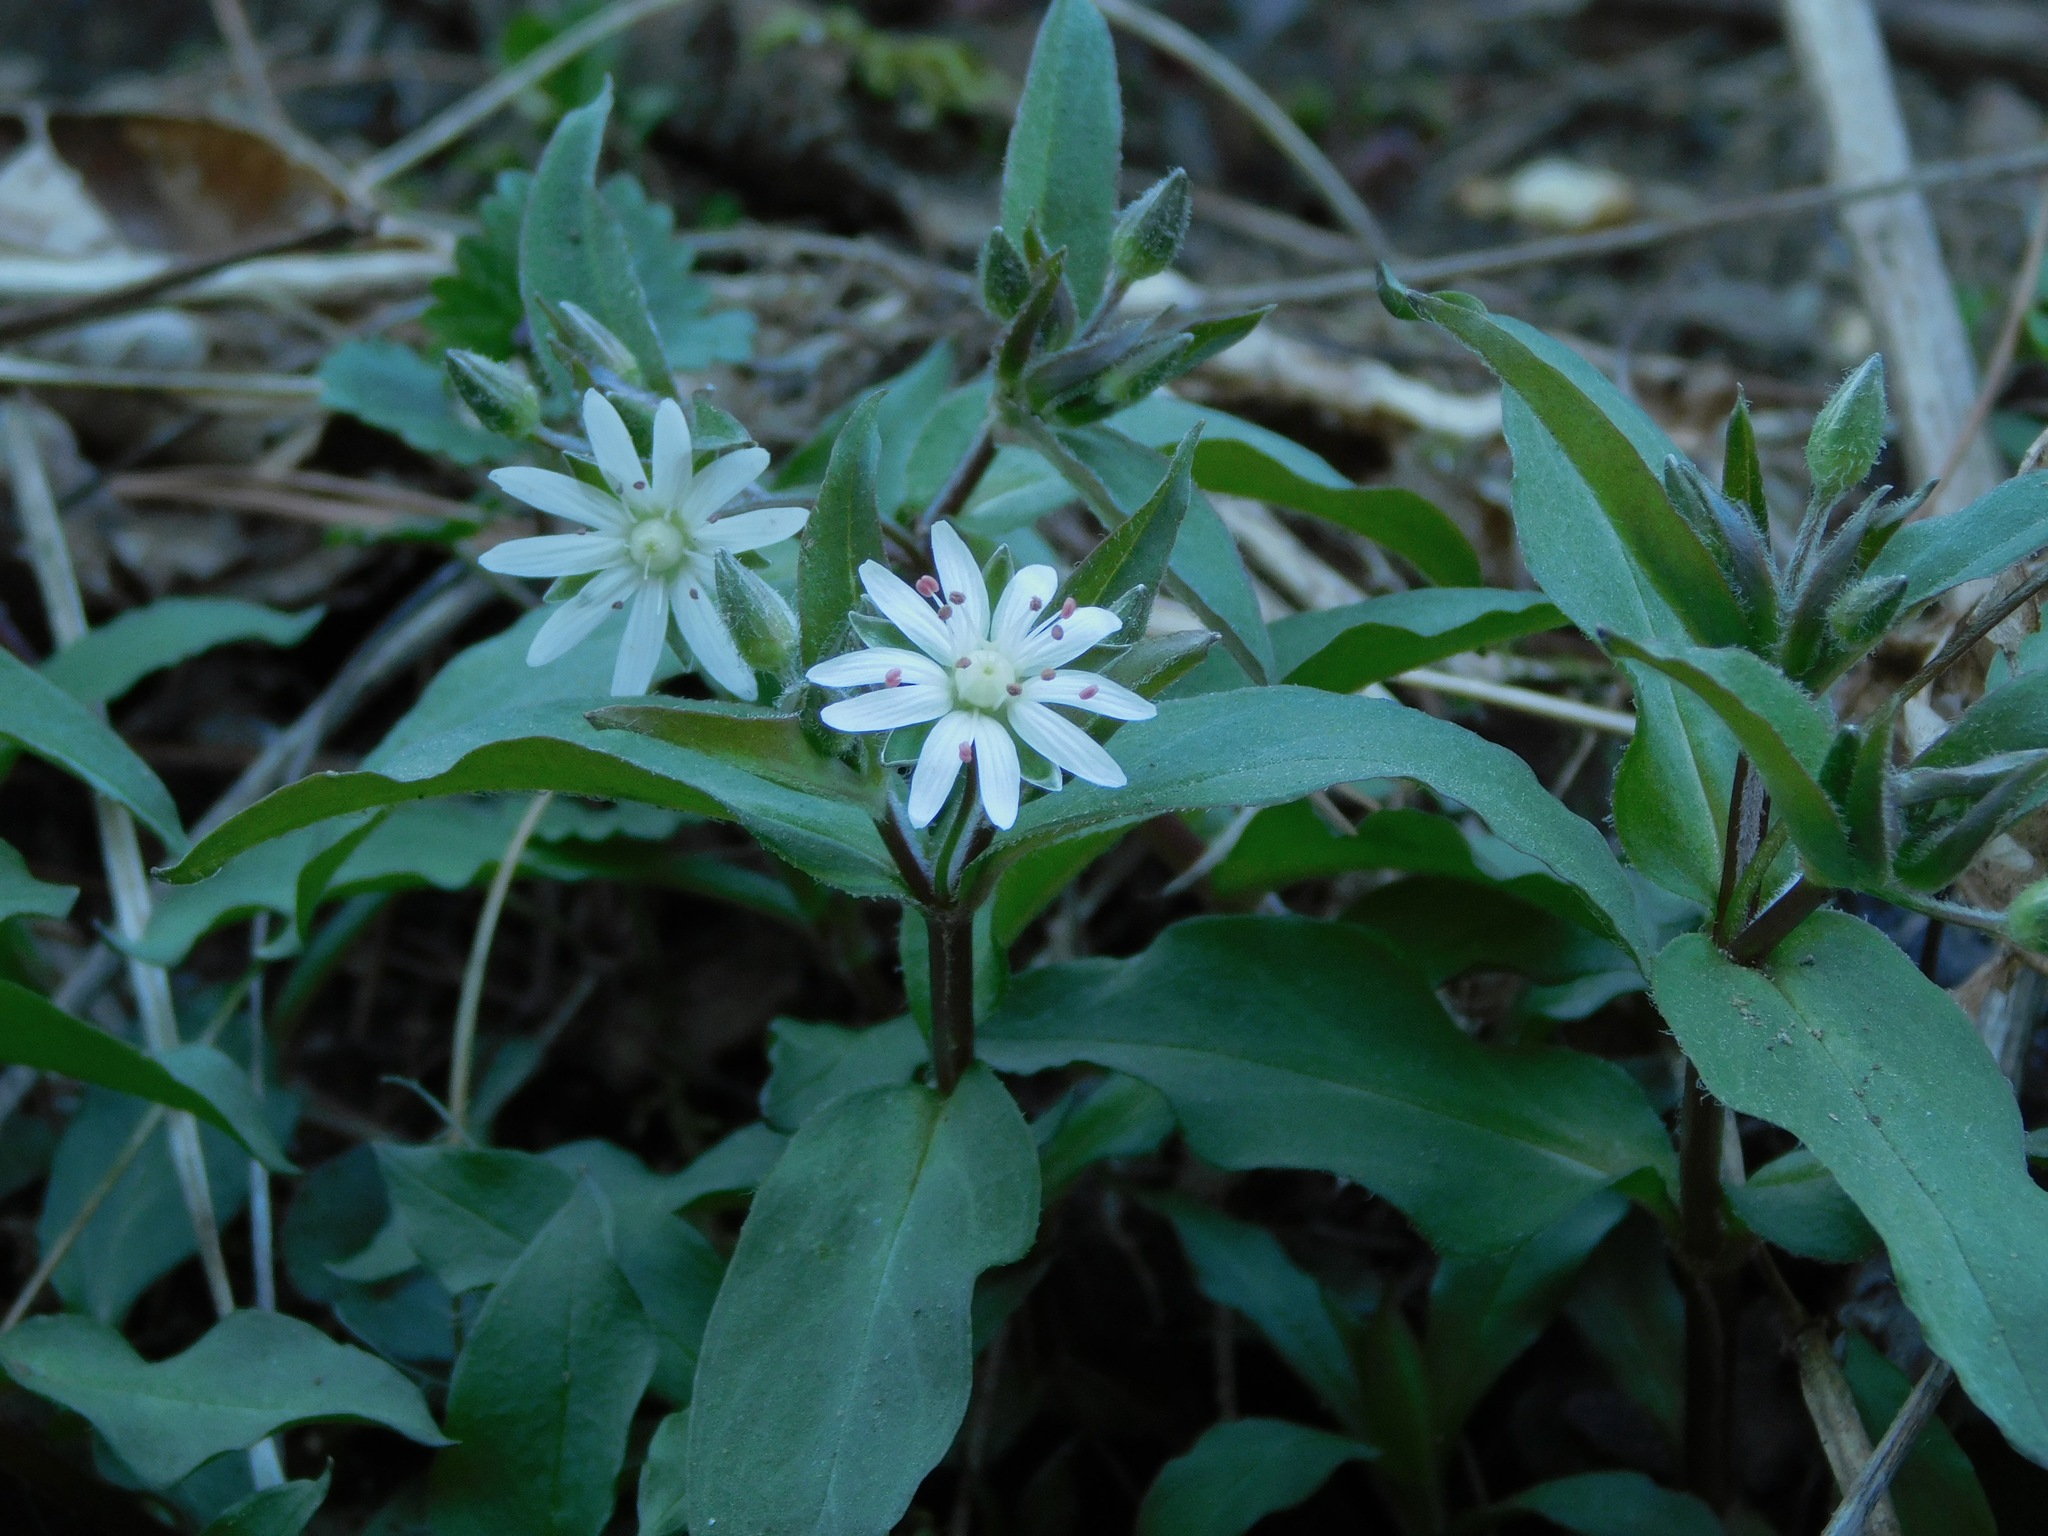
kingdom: Plantae
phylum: Tracheophyta
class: Magnoliopsida
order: Caryophyllales
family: Caryophyllaceae
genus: Stellaria
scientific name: Stellaria pubera
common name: Star chickweed
